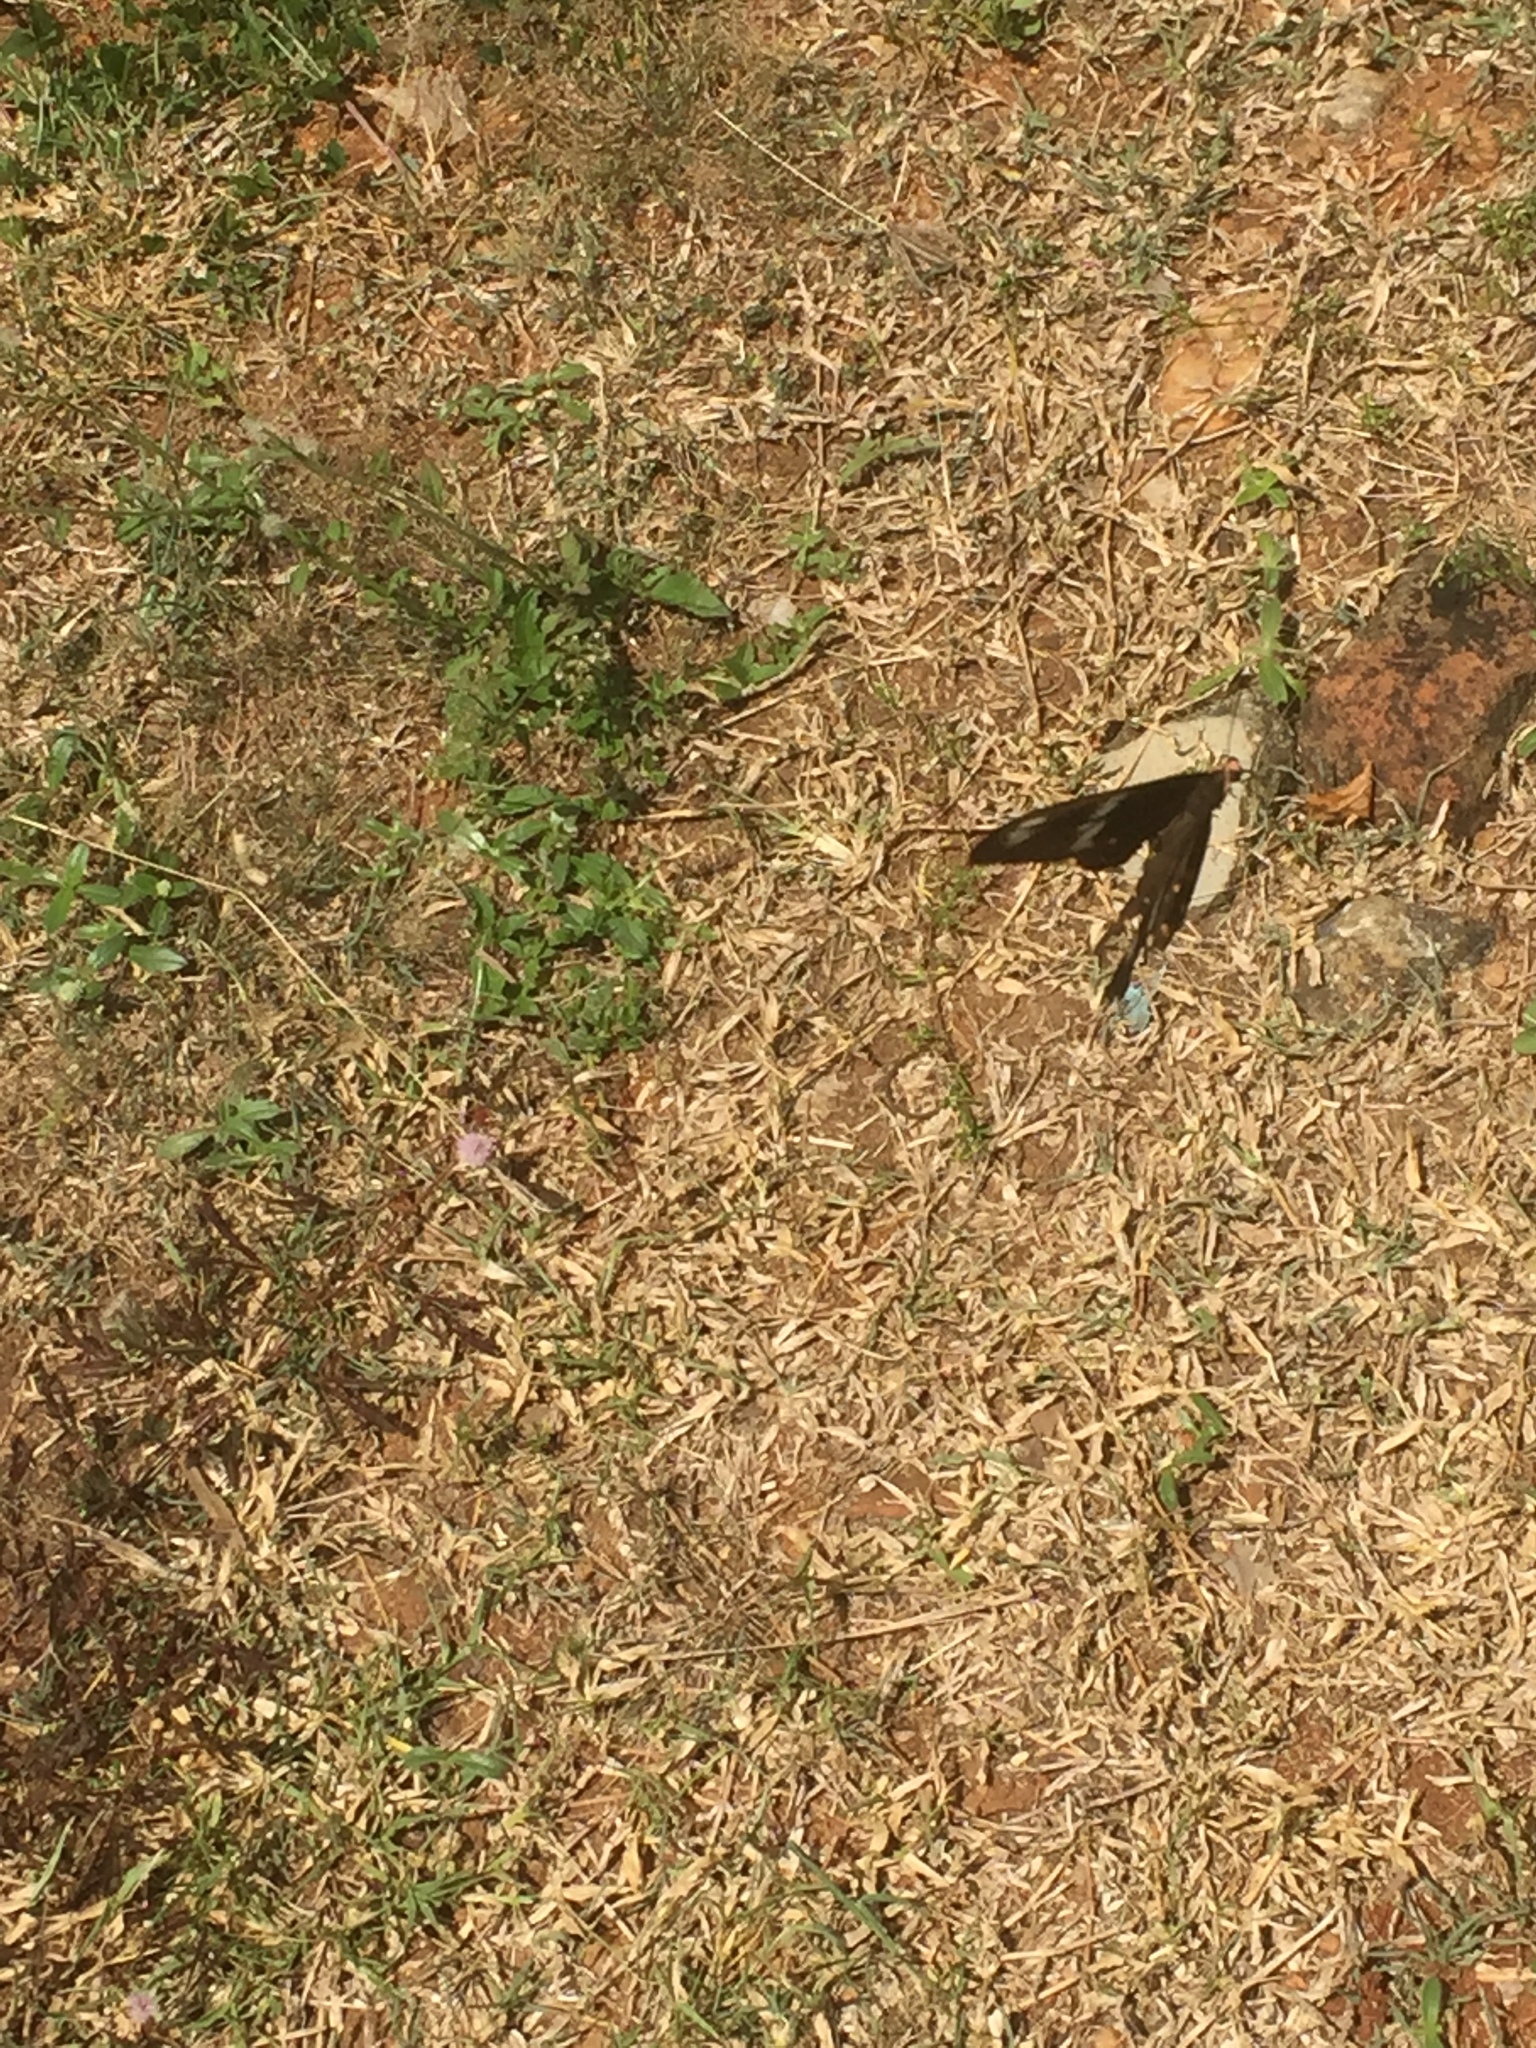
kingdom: Animalia
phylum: Arthropoda
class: Insecta
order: Lepidoptera
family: Papilionidae
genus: Pachliopta
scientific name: Pachliopta hector
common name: Crimson rose
